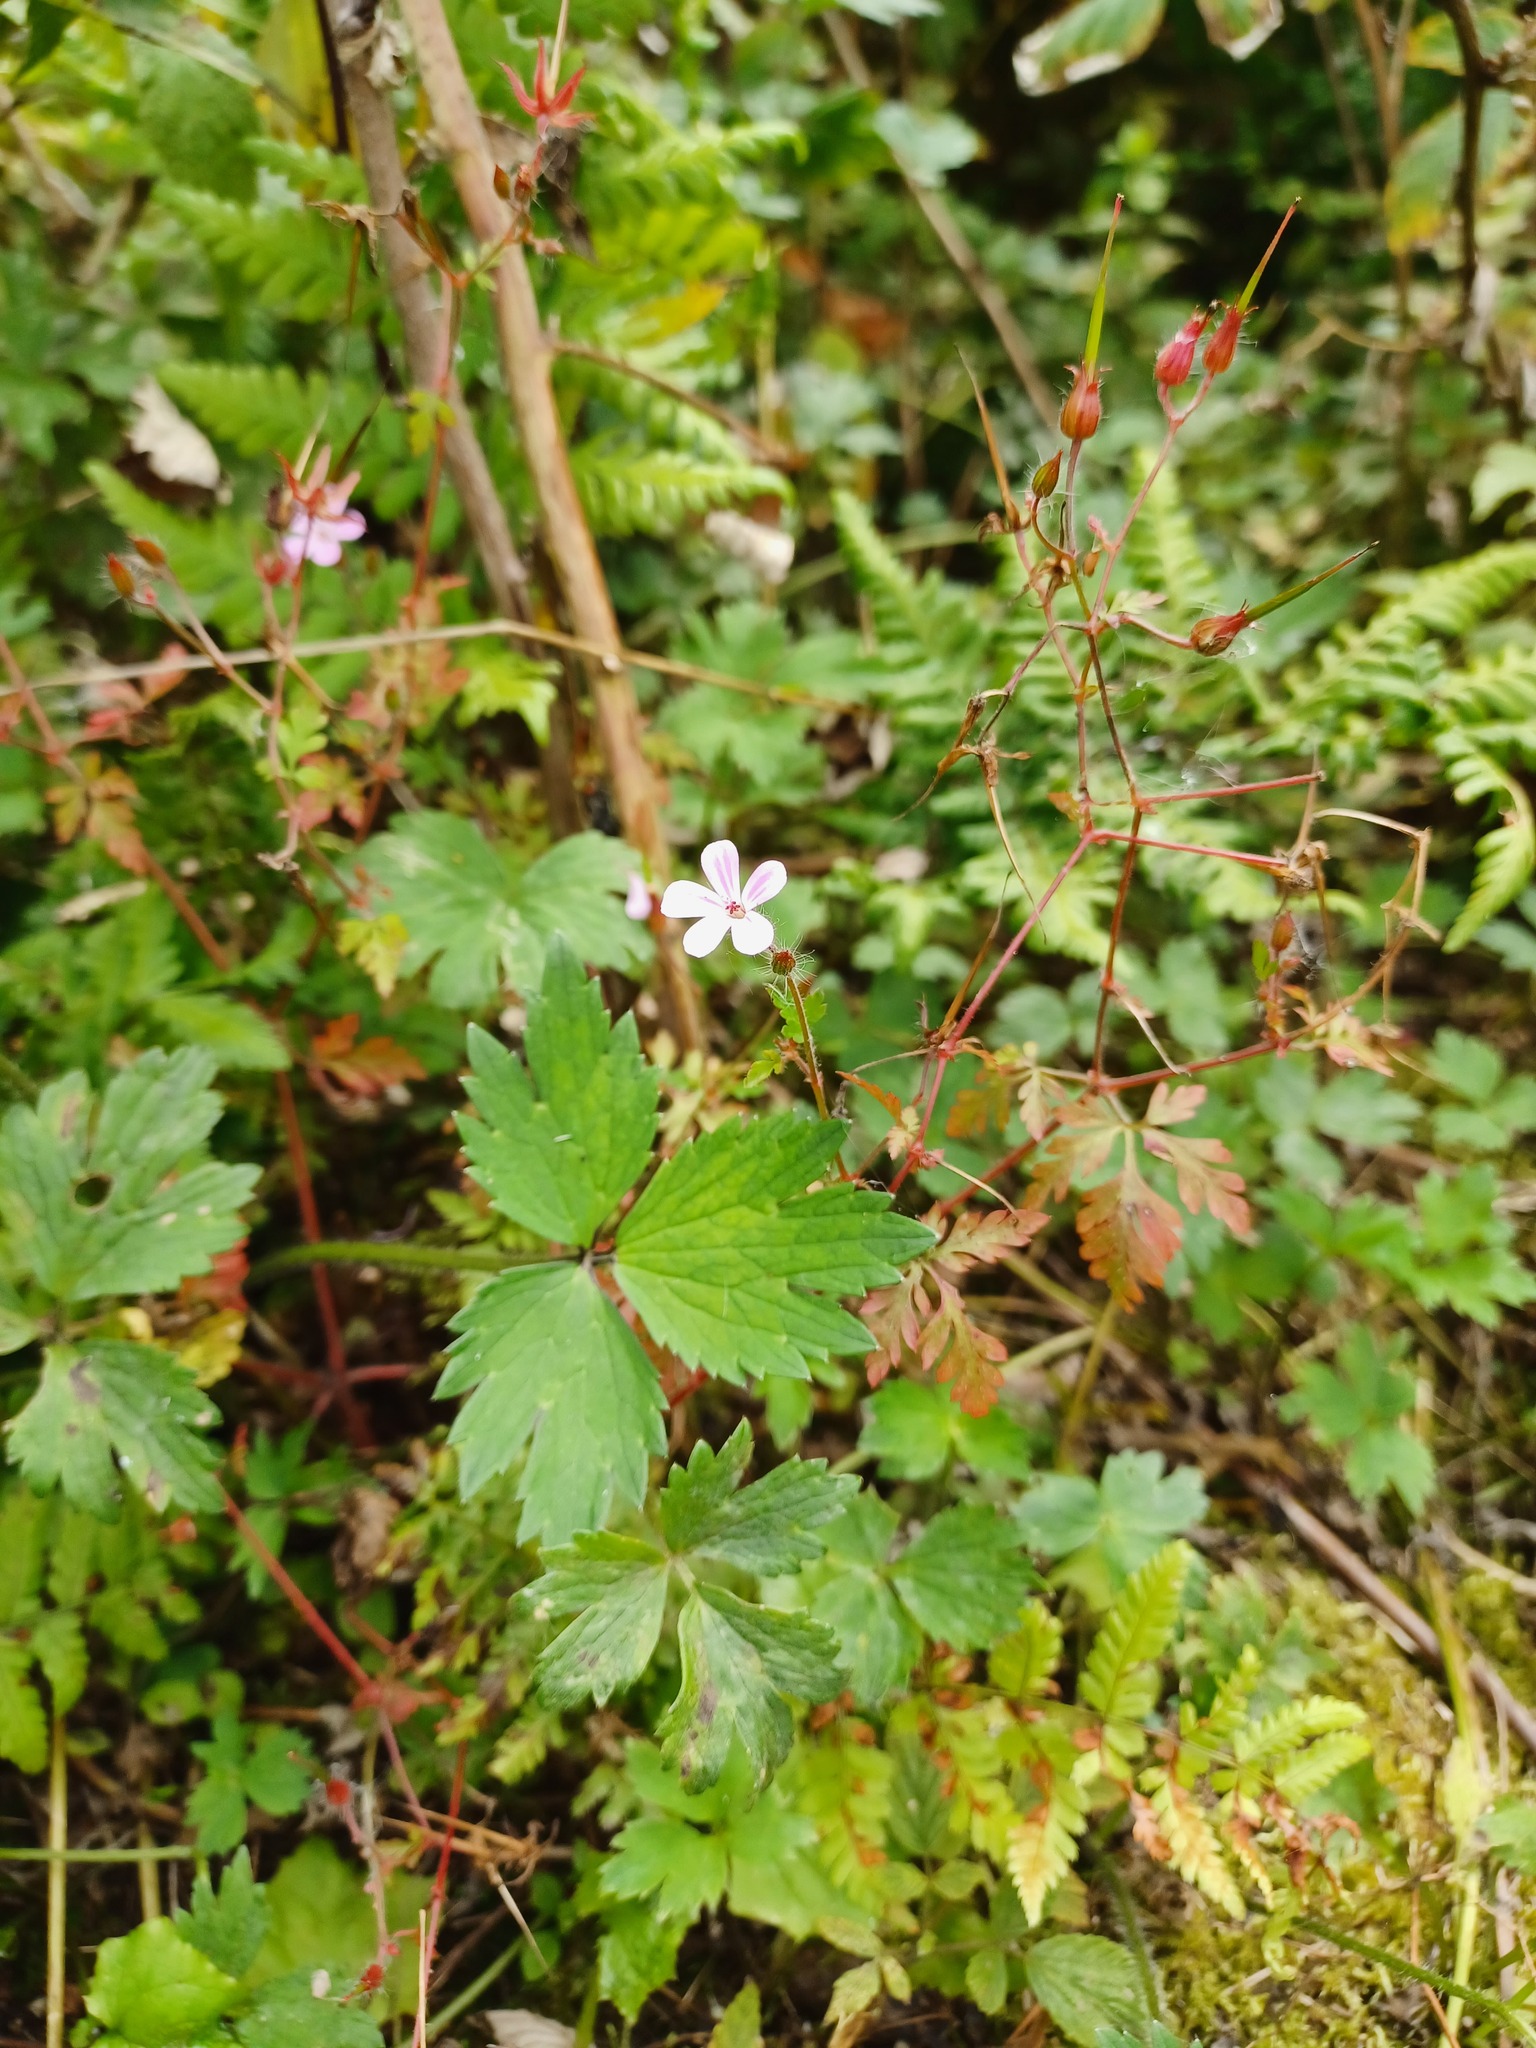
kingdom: Plantae
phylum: Tracheophyta
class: Magnoliopsida
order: Geraniales
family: Geraniaceae
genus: Geranium
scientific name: Geranium robertianum
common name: Herb-robert
